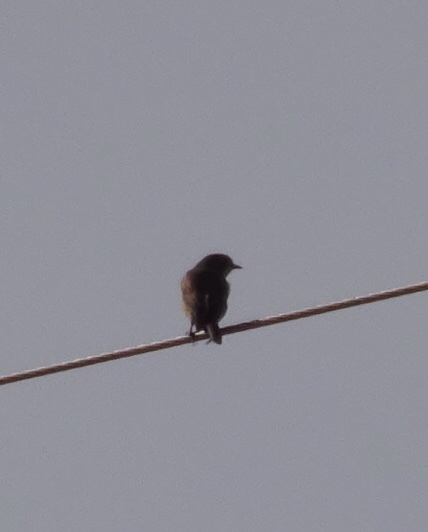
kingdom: Animalia
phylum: Chordata
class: Aves
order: Passeriformes
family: Turdidae
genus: Sialia
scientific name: Sialia sialis
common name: Eastern bluebird
